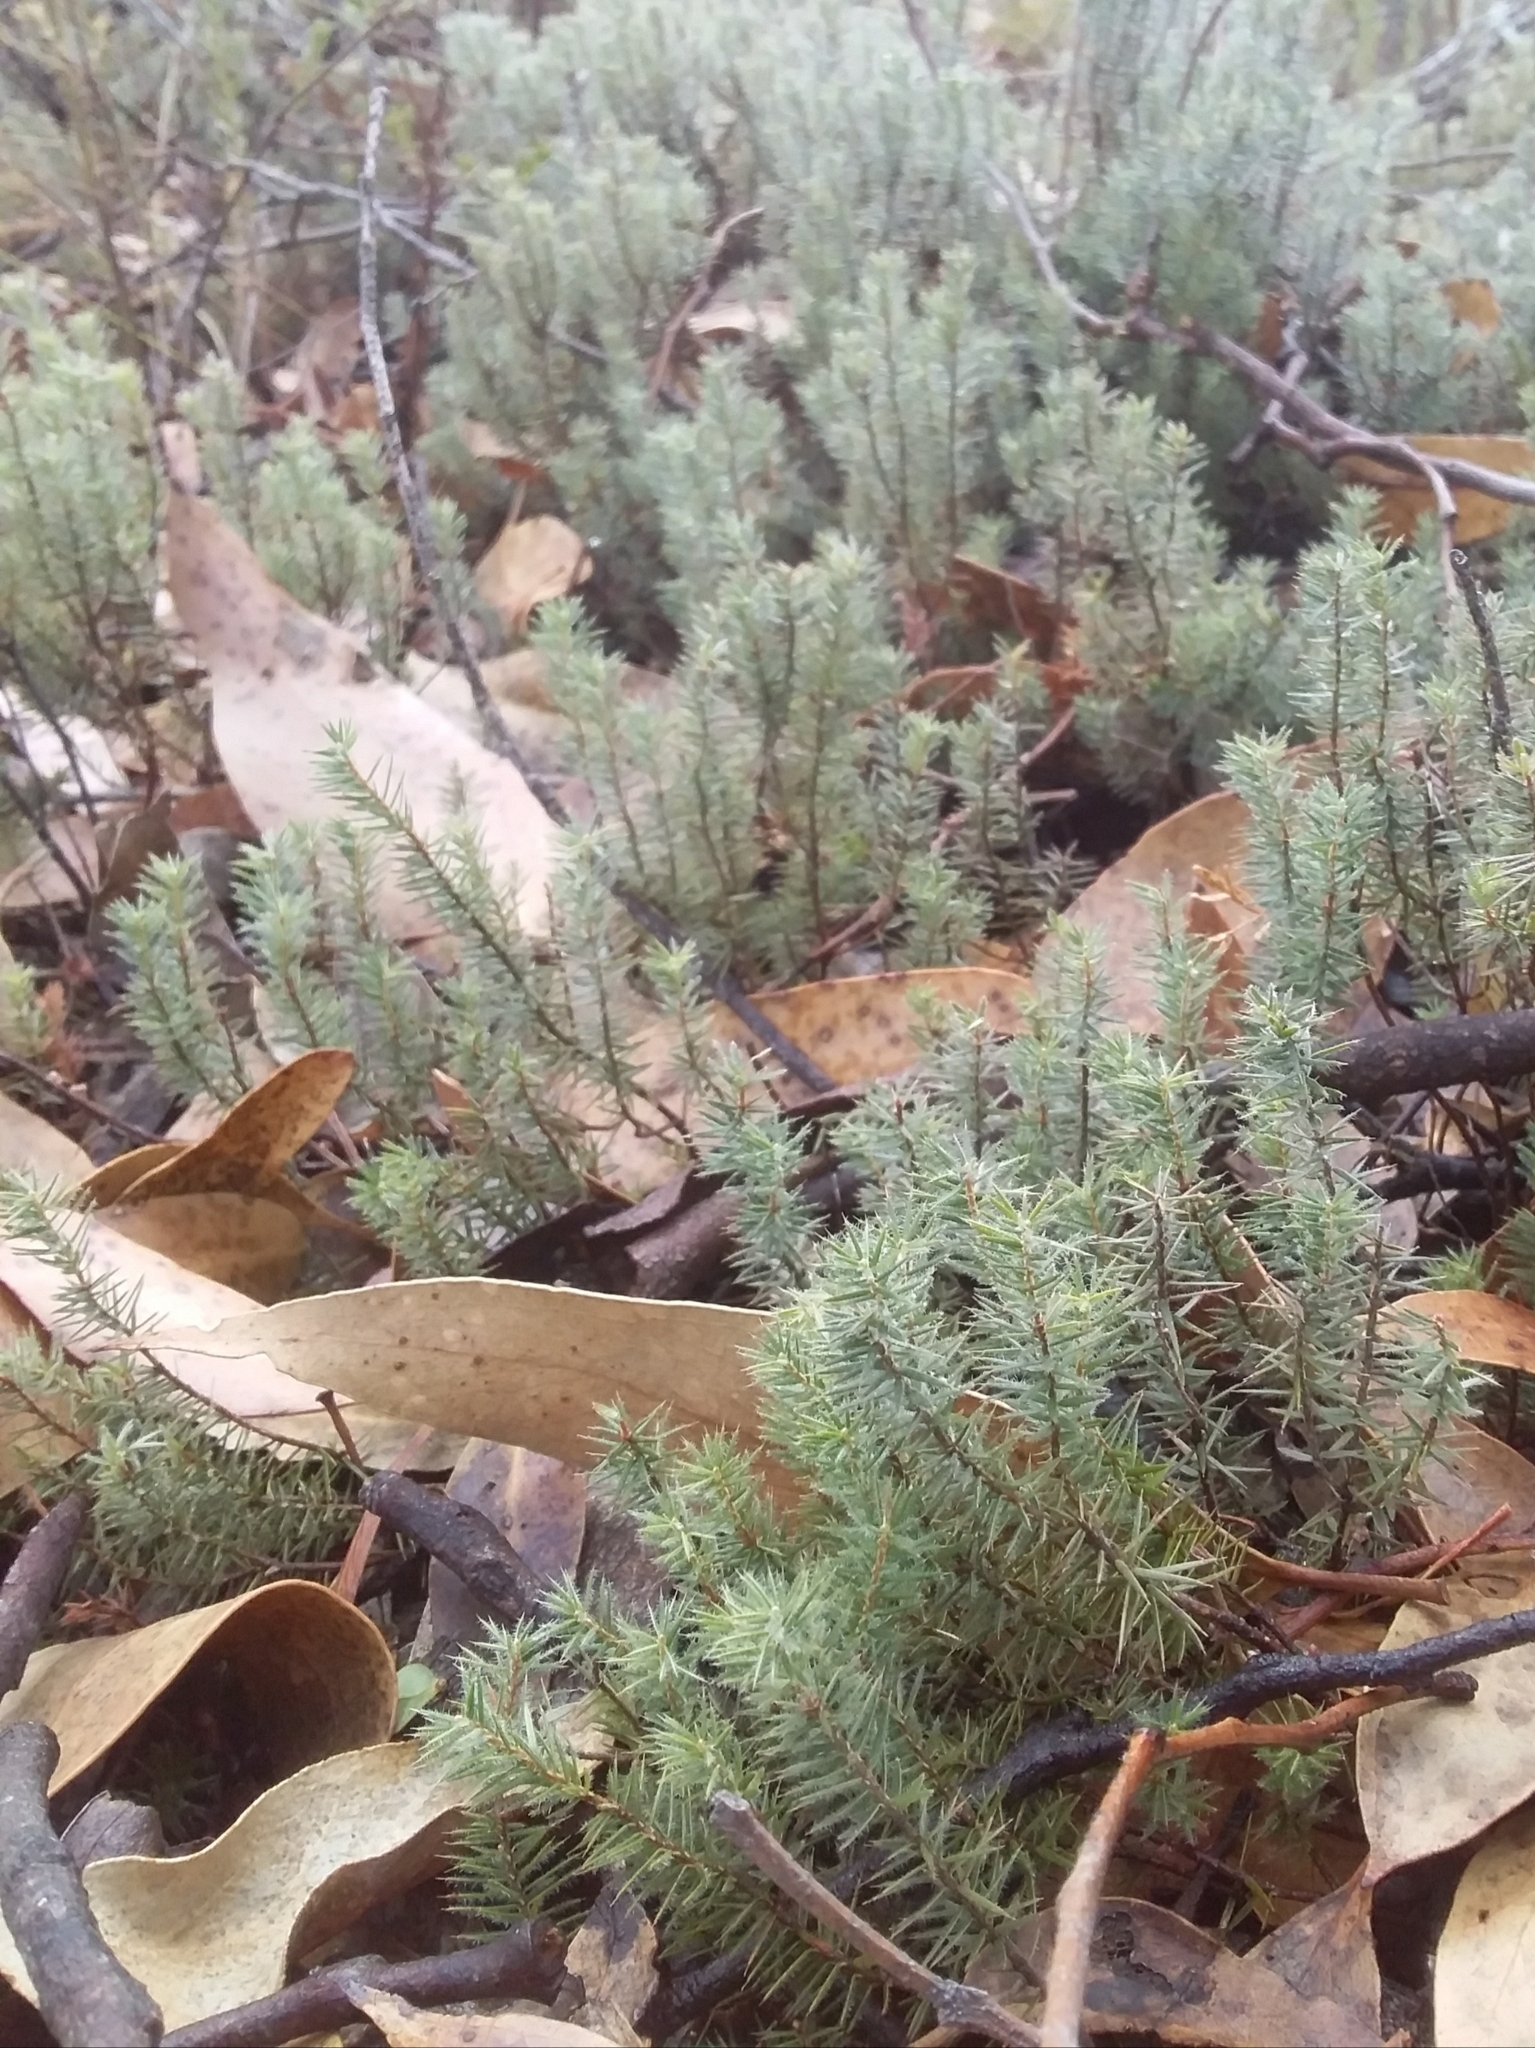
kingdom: Plantae
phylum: Tracheophyta
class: Magnoliopsida
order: Ericales
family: Ericaceae
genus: Acrotriche
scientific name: Acrotriche serrulata
